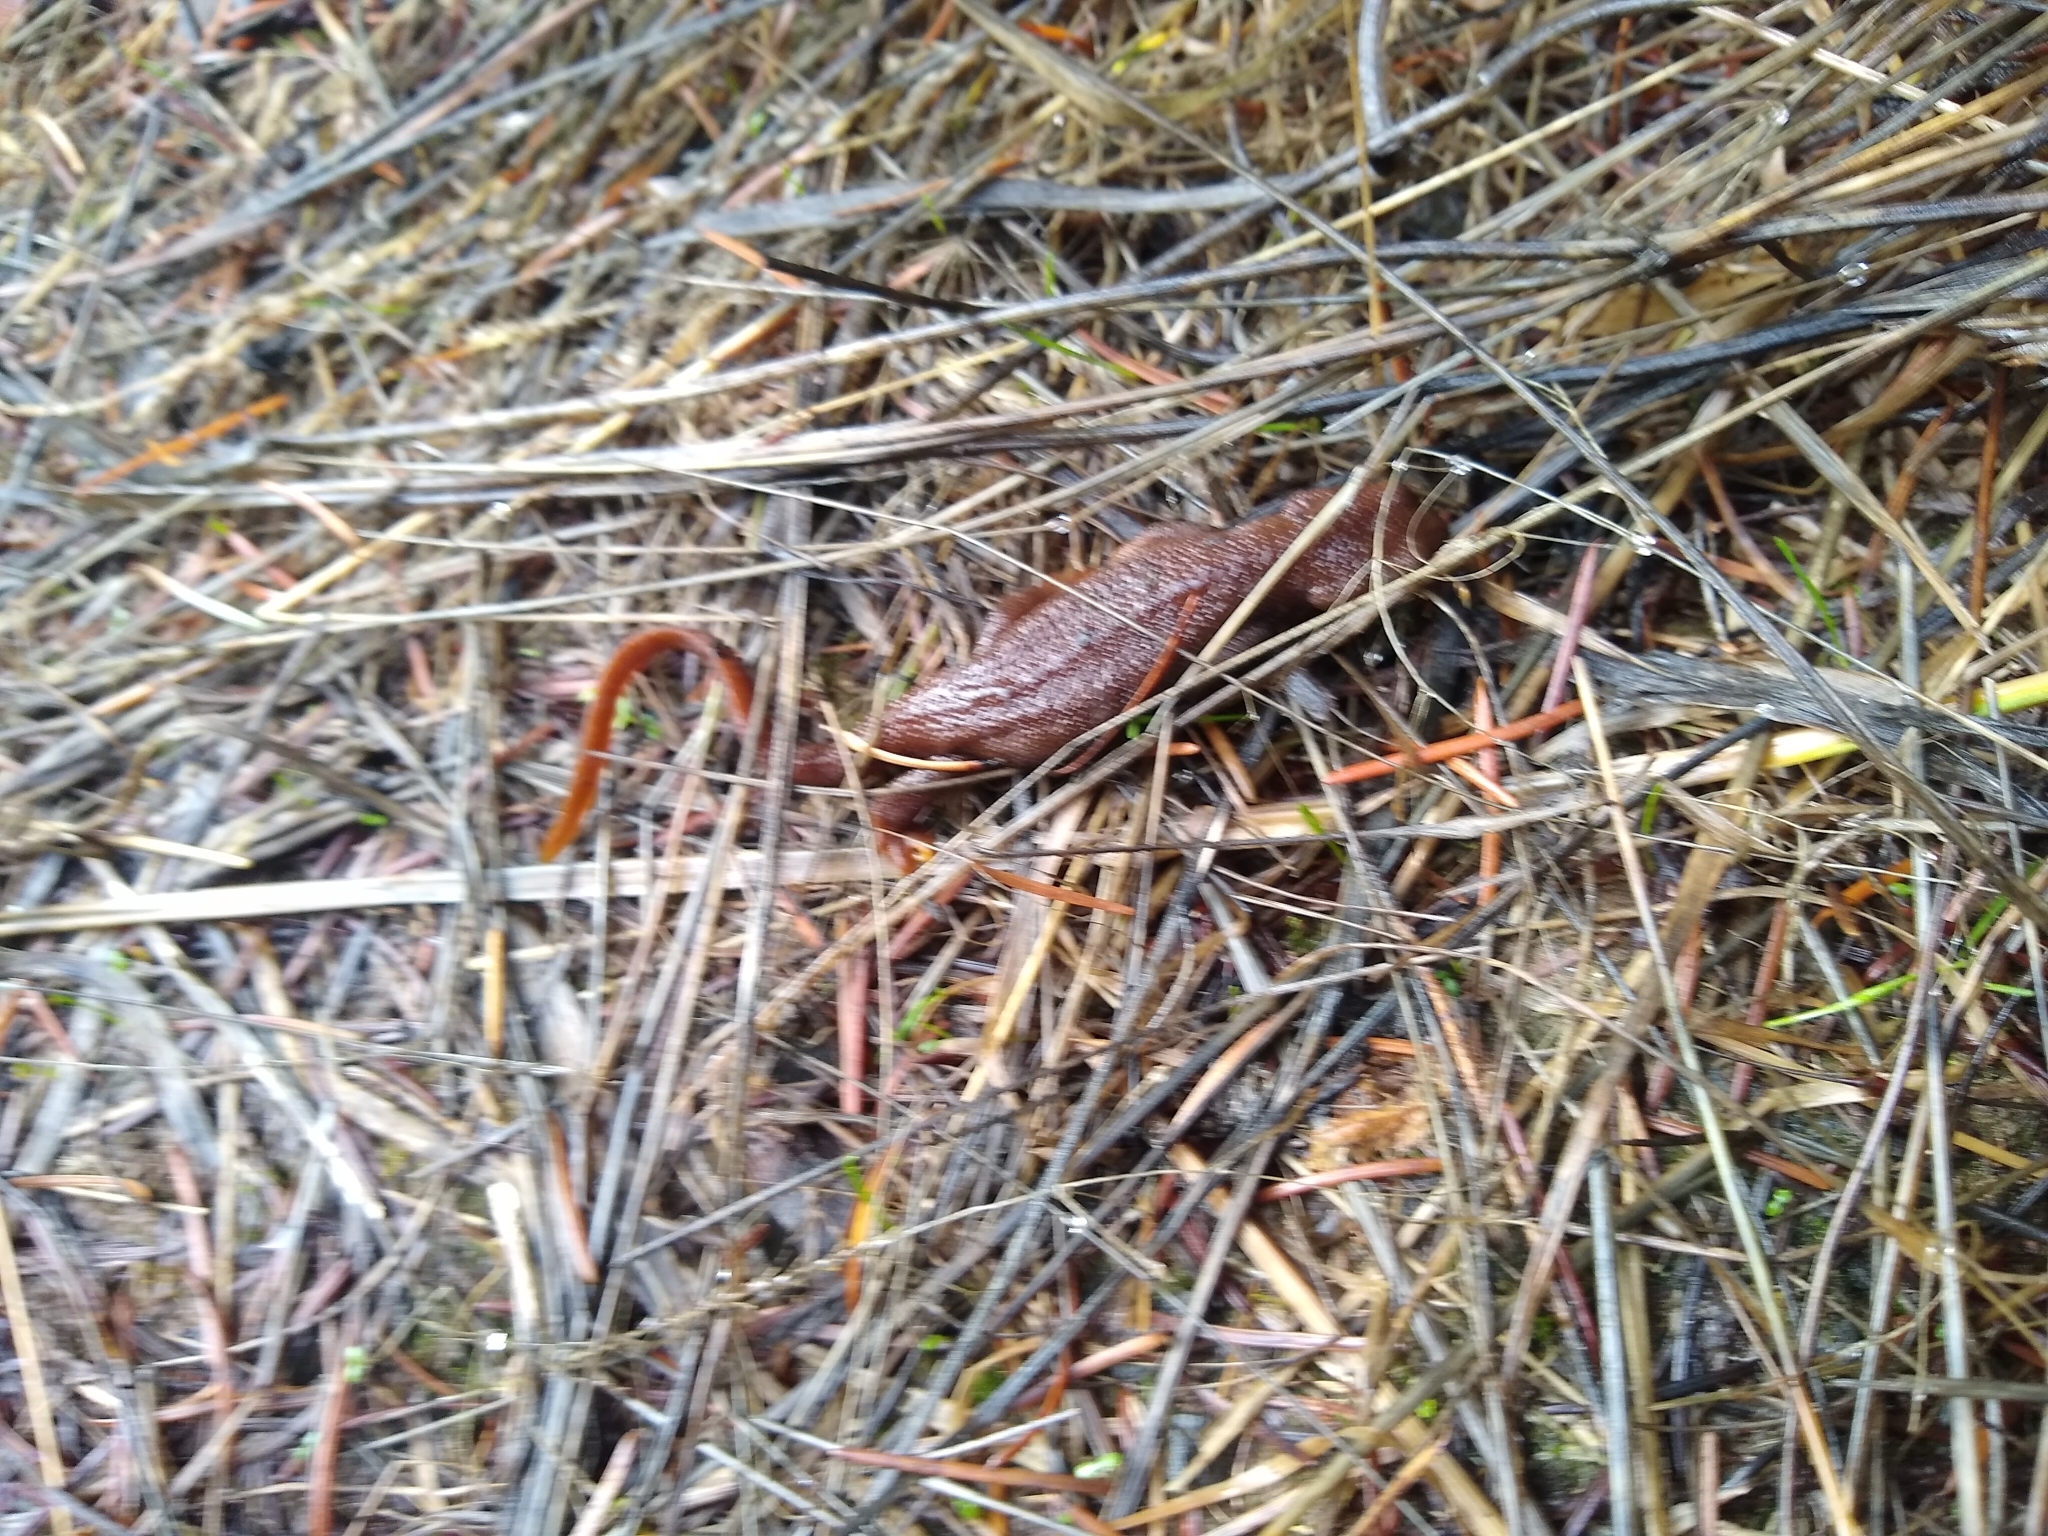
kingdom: Animalia
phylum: Chordata
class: Amphibia
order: Caudata
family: Salamandridae
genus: Taricha
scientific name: Taricha granulosa
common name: Roughskin newt
